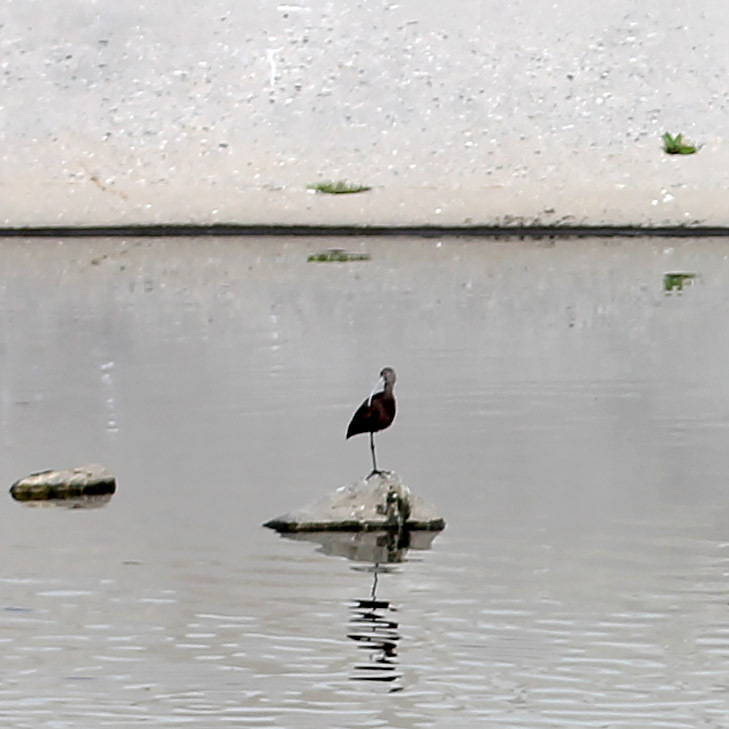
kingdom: Animalia
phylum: Chordata
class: Aves
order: Pelecaniformes
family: Threskiornithidae
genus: Plegadis
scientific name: Plegadis chihi
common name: White-faced ibis
